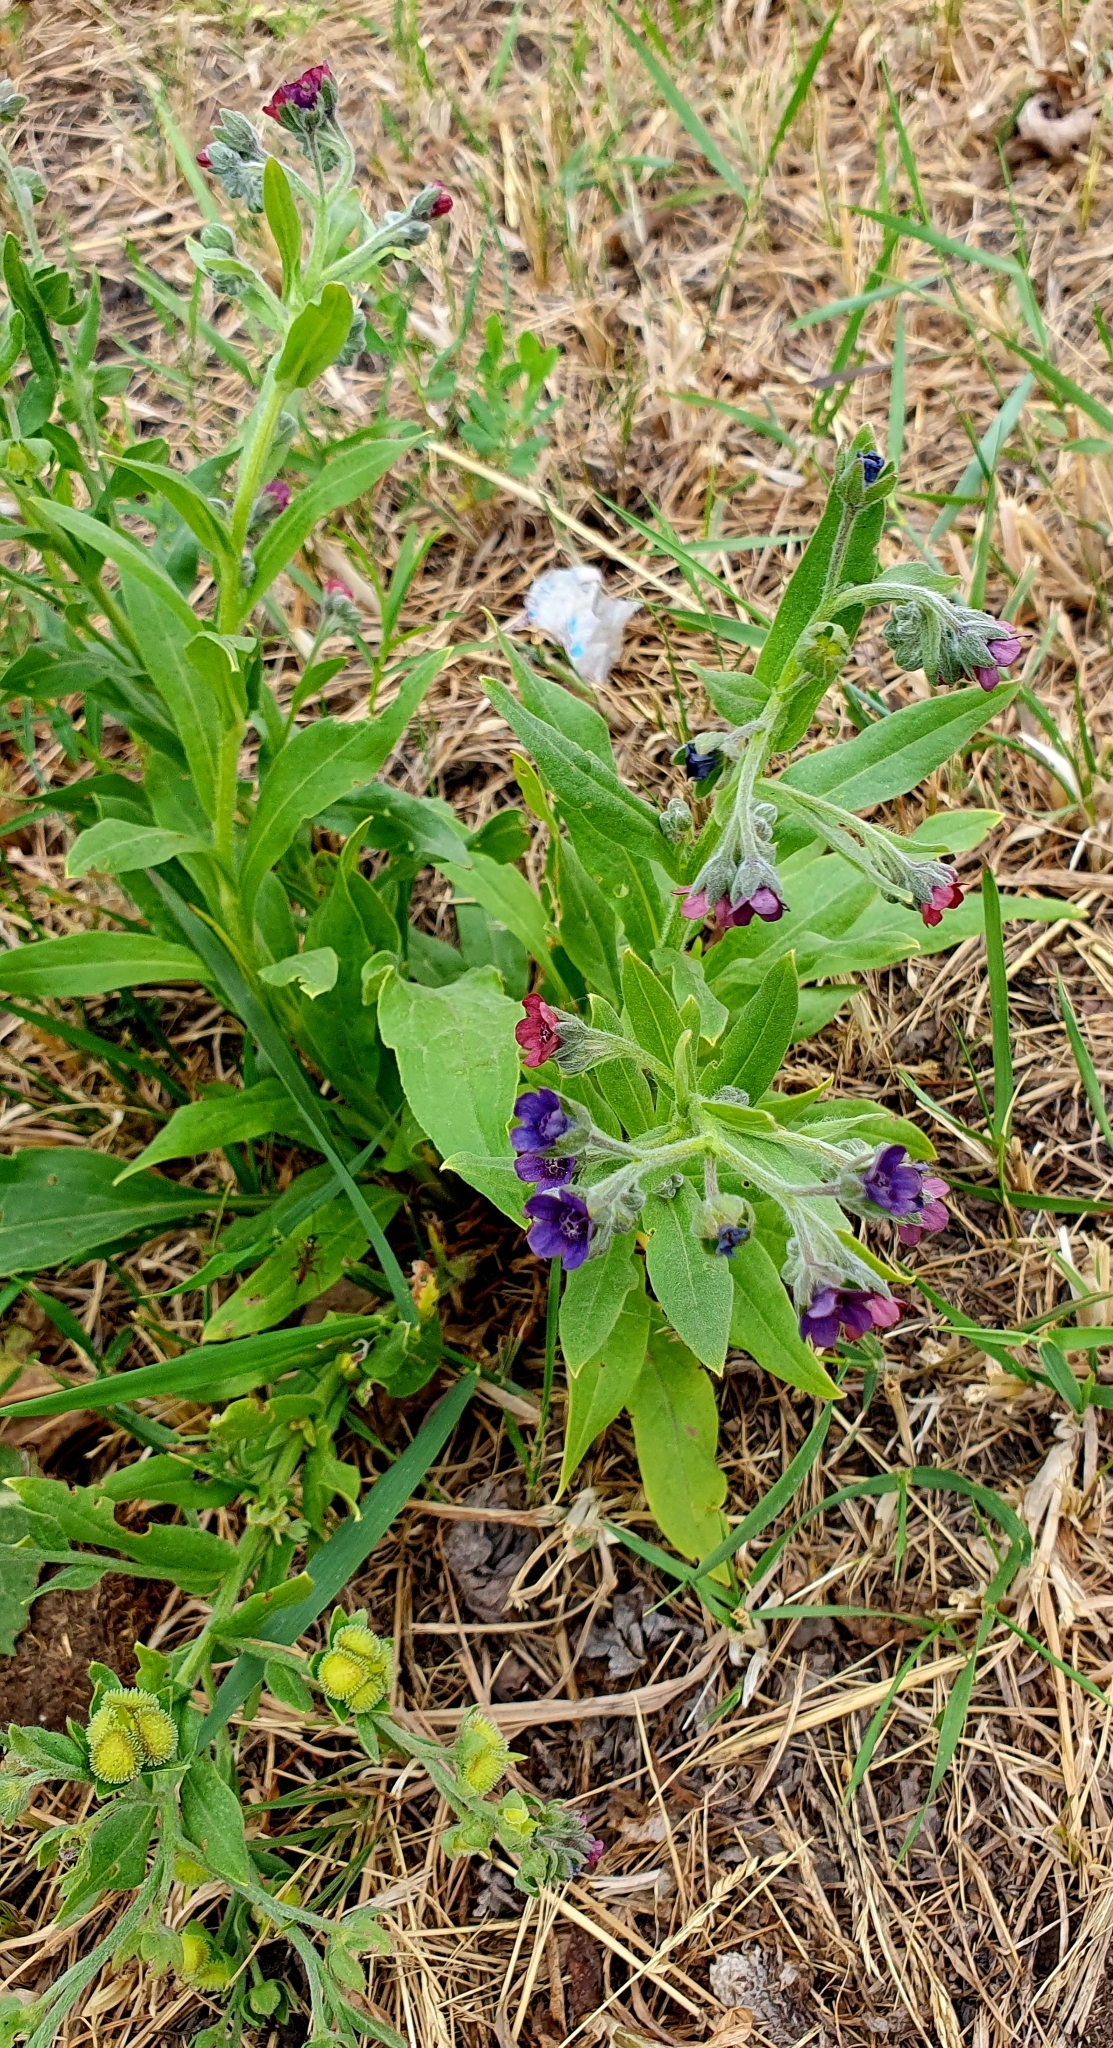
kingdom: Plantae
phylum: Tracheophyta
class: Magnoliopsida
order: Boraginales
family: Boraginaceae
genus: Cynoglossum
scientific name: Cynoglossum officinale
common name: Hound's-tongue
